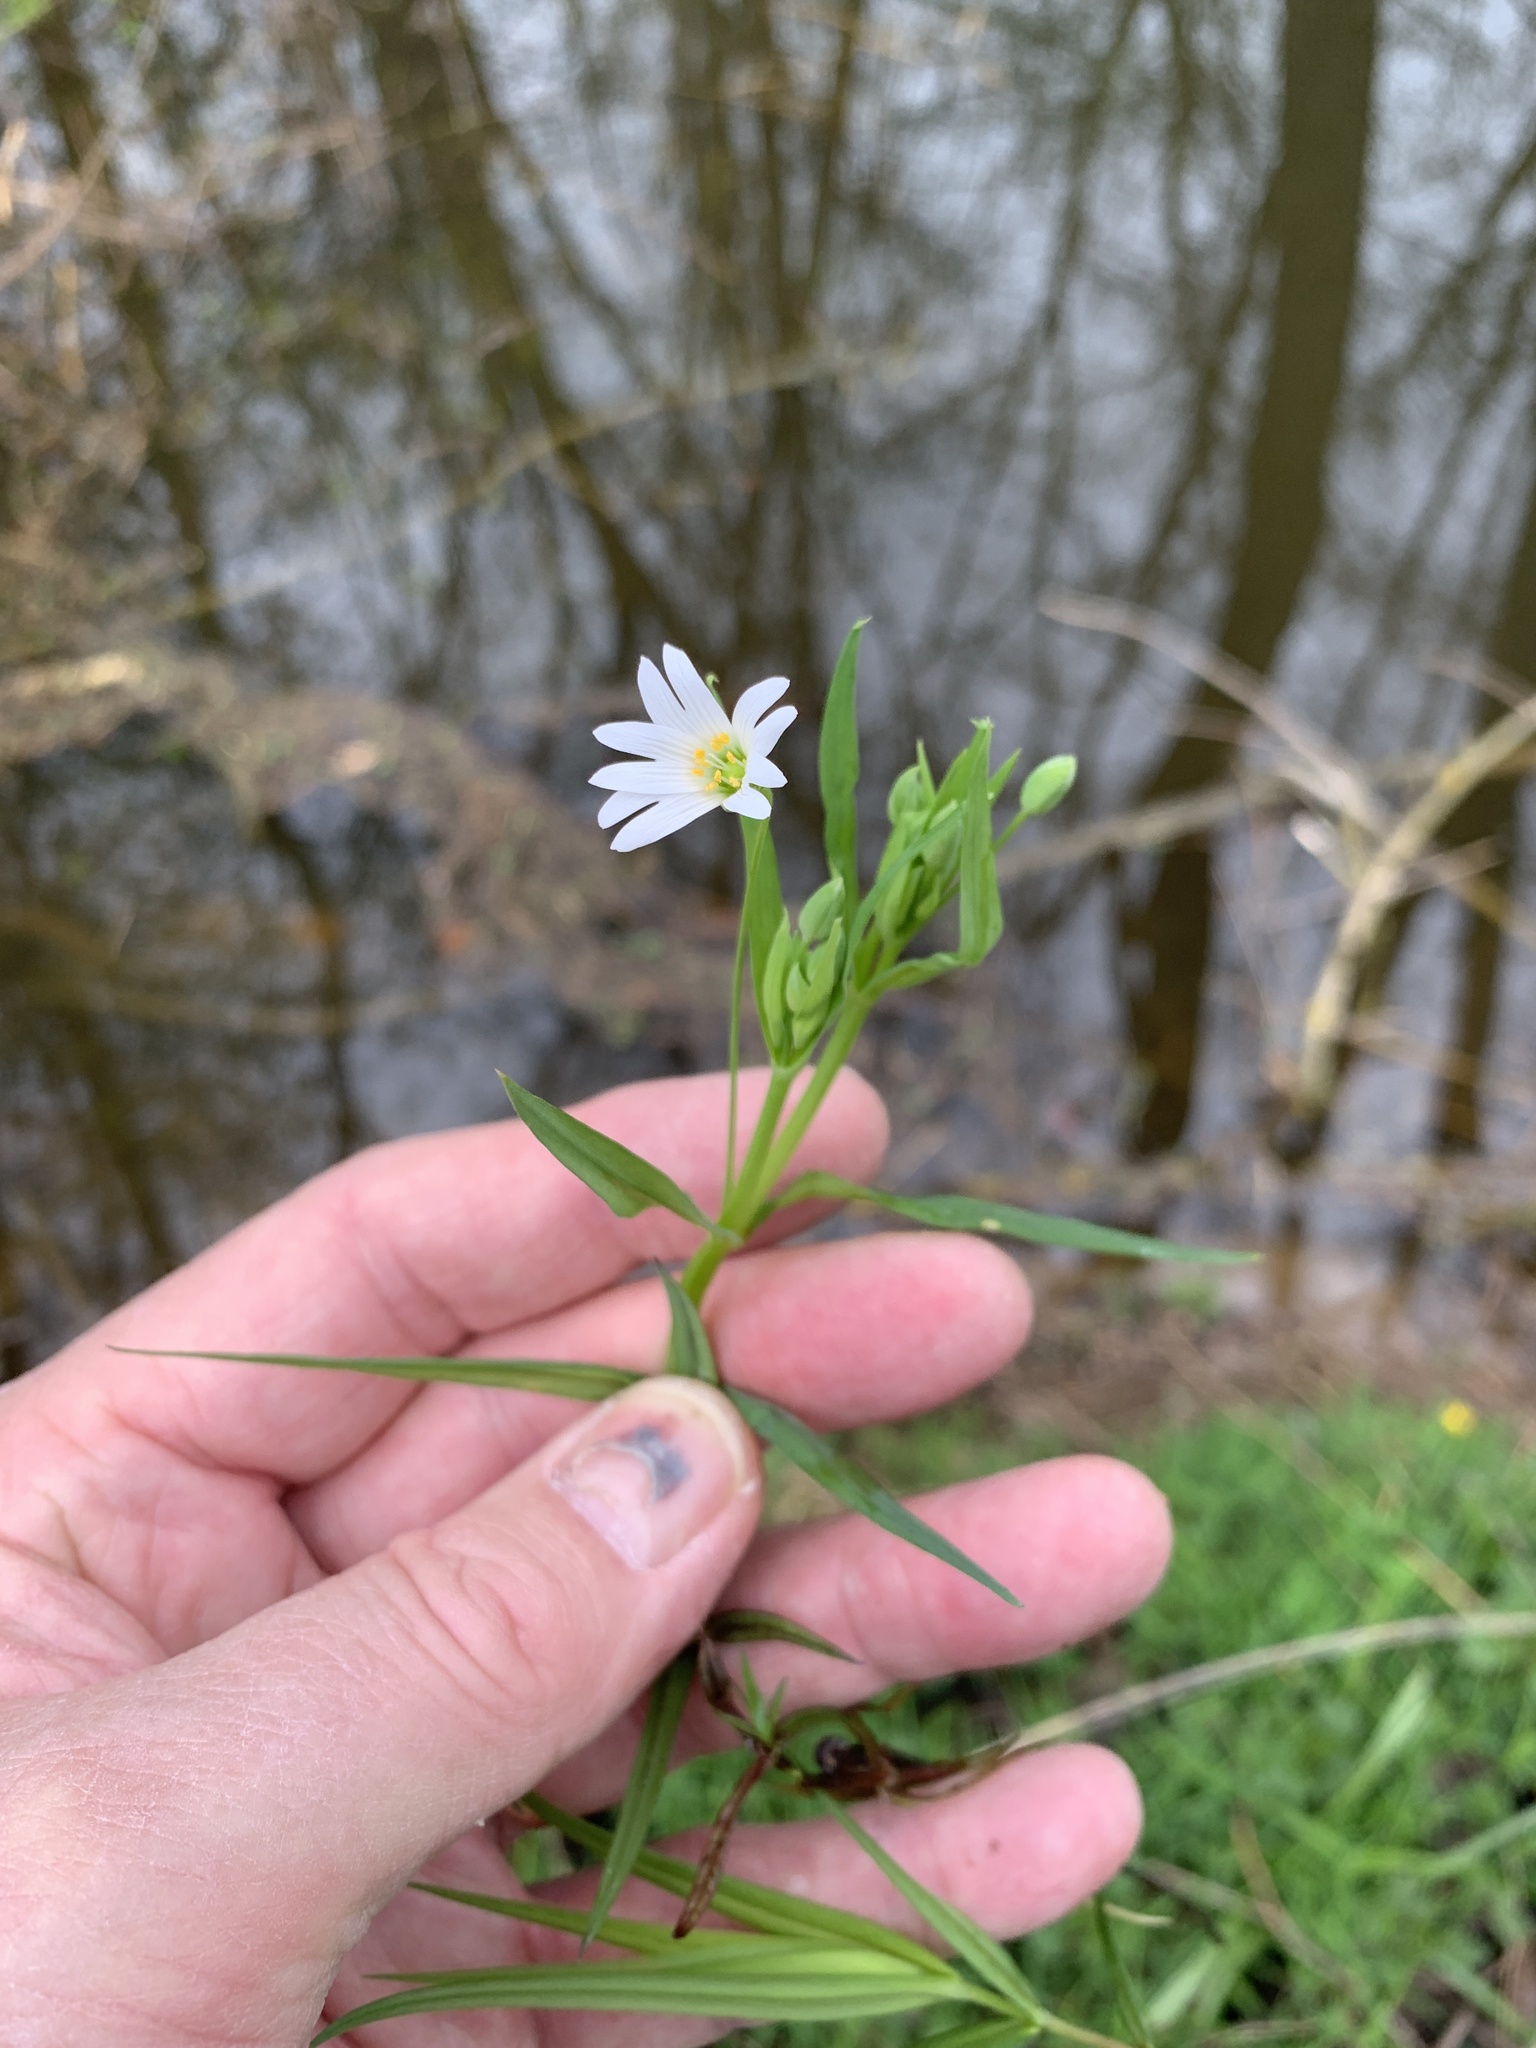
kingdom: Plantae
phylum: Tracheophyta
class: Magnoliopsida
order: Caryophyllales
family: Caryophyllaceae
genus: Rabelera
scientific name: Rabelera holostea
